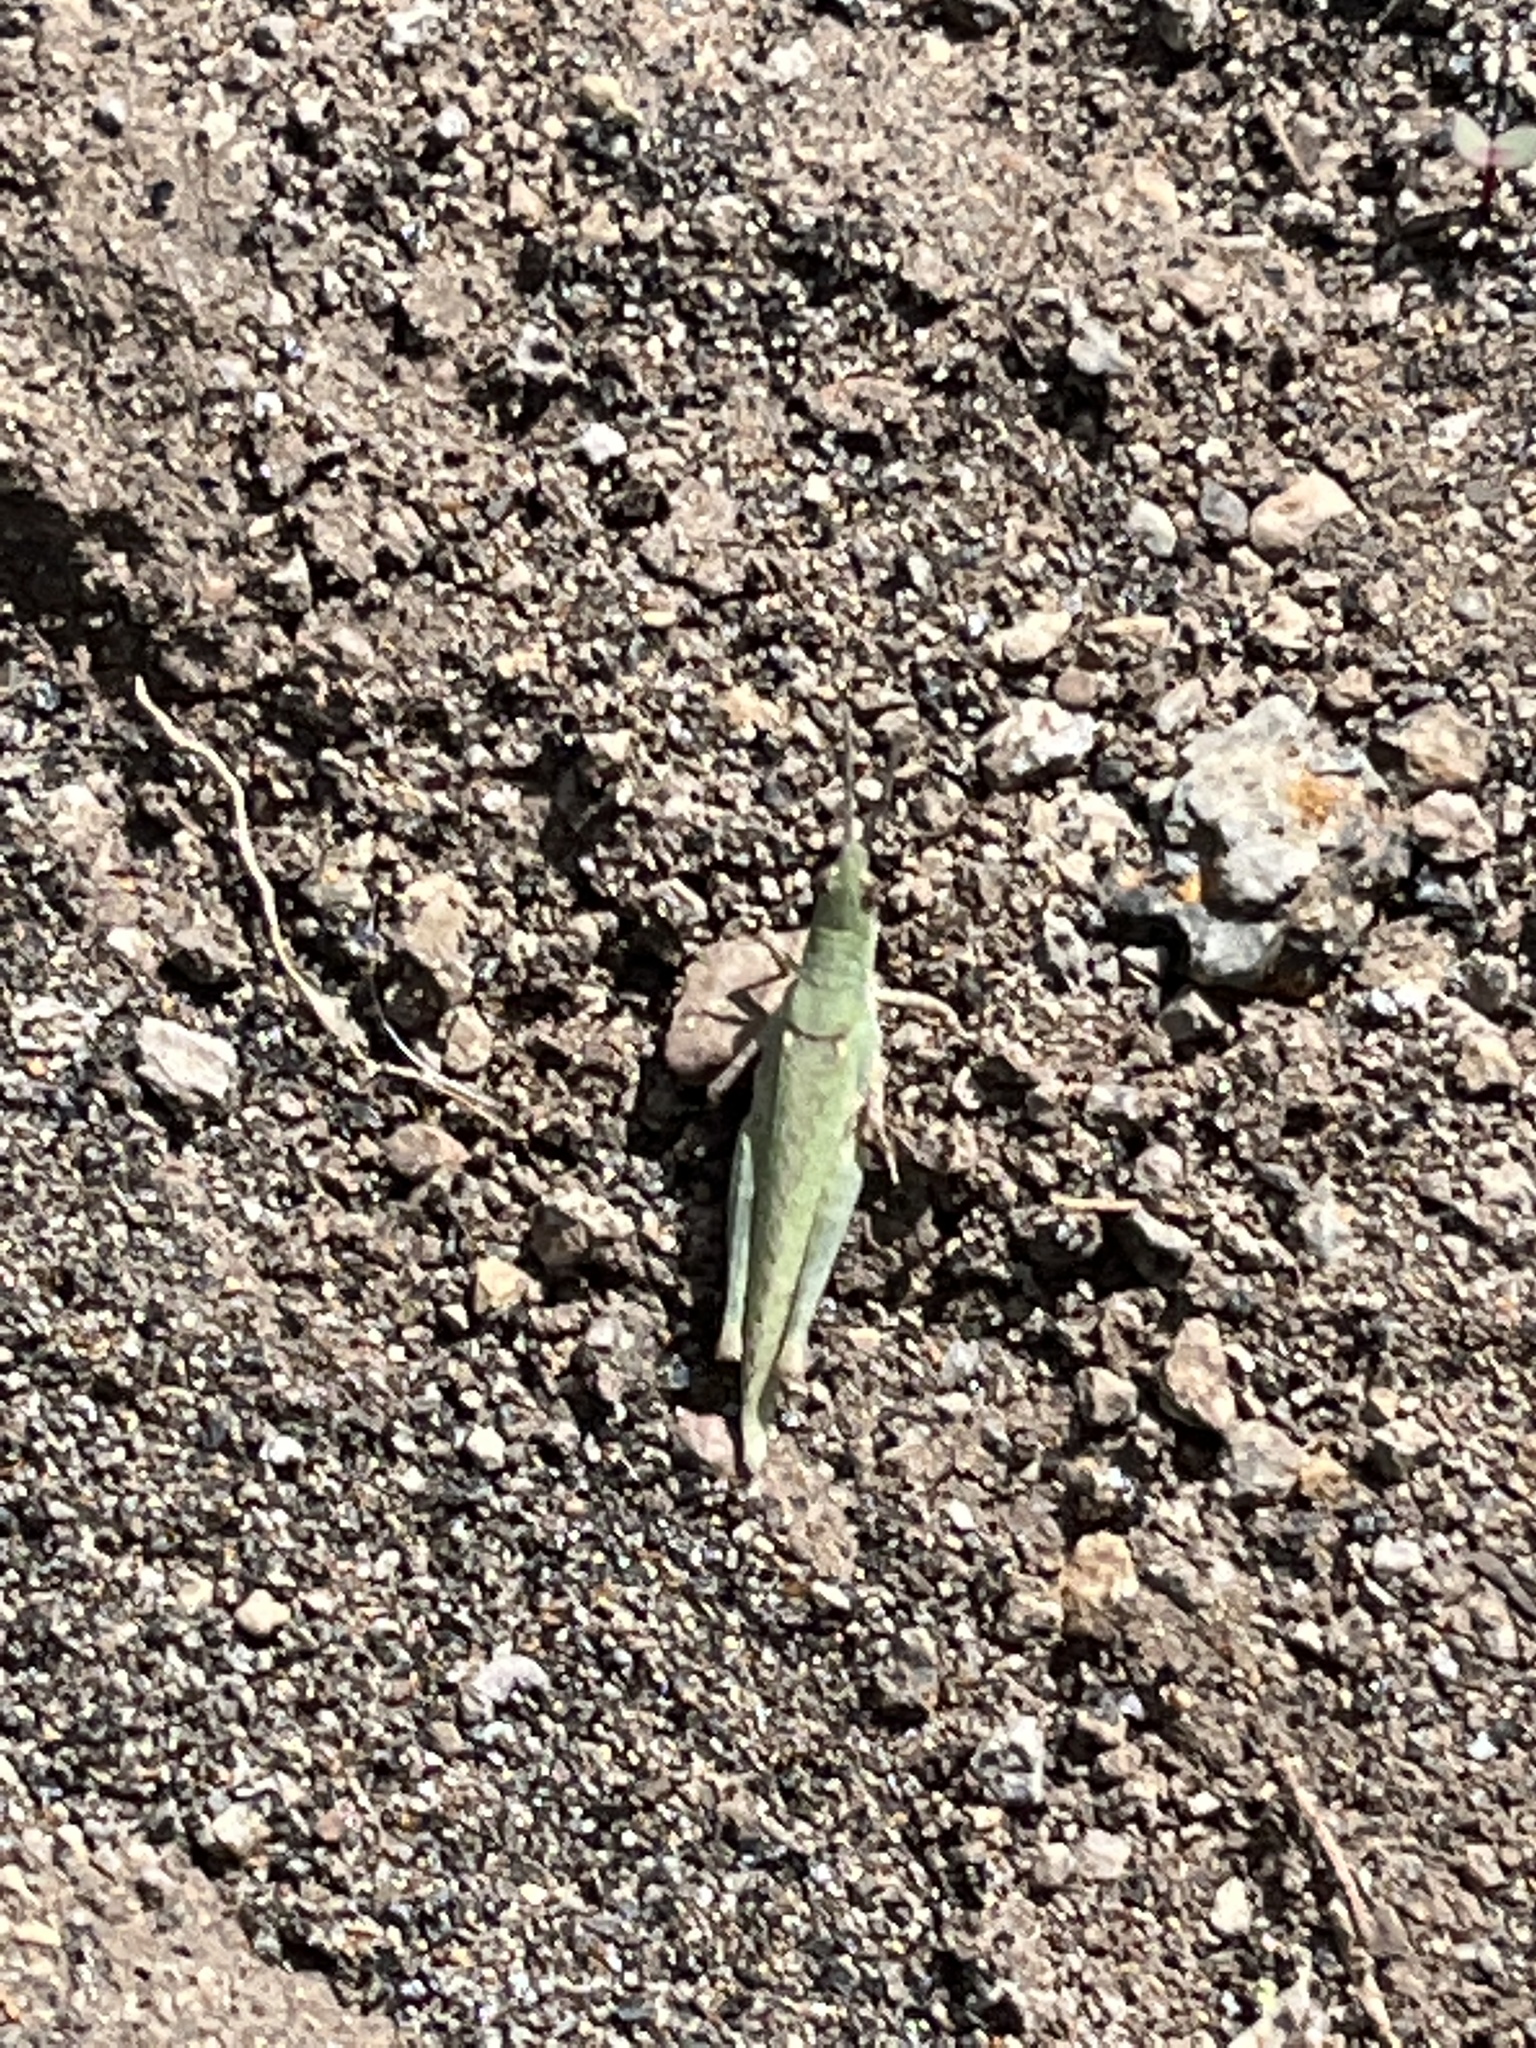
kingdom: Animalia
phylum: Arthropoda
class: Insecta
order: Orthoptera
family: Pyrgomorphidae
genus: Pyrgomorpha
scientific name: Pyrgomorpha conica
